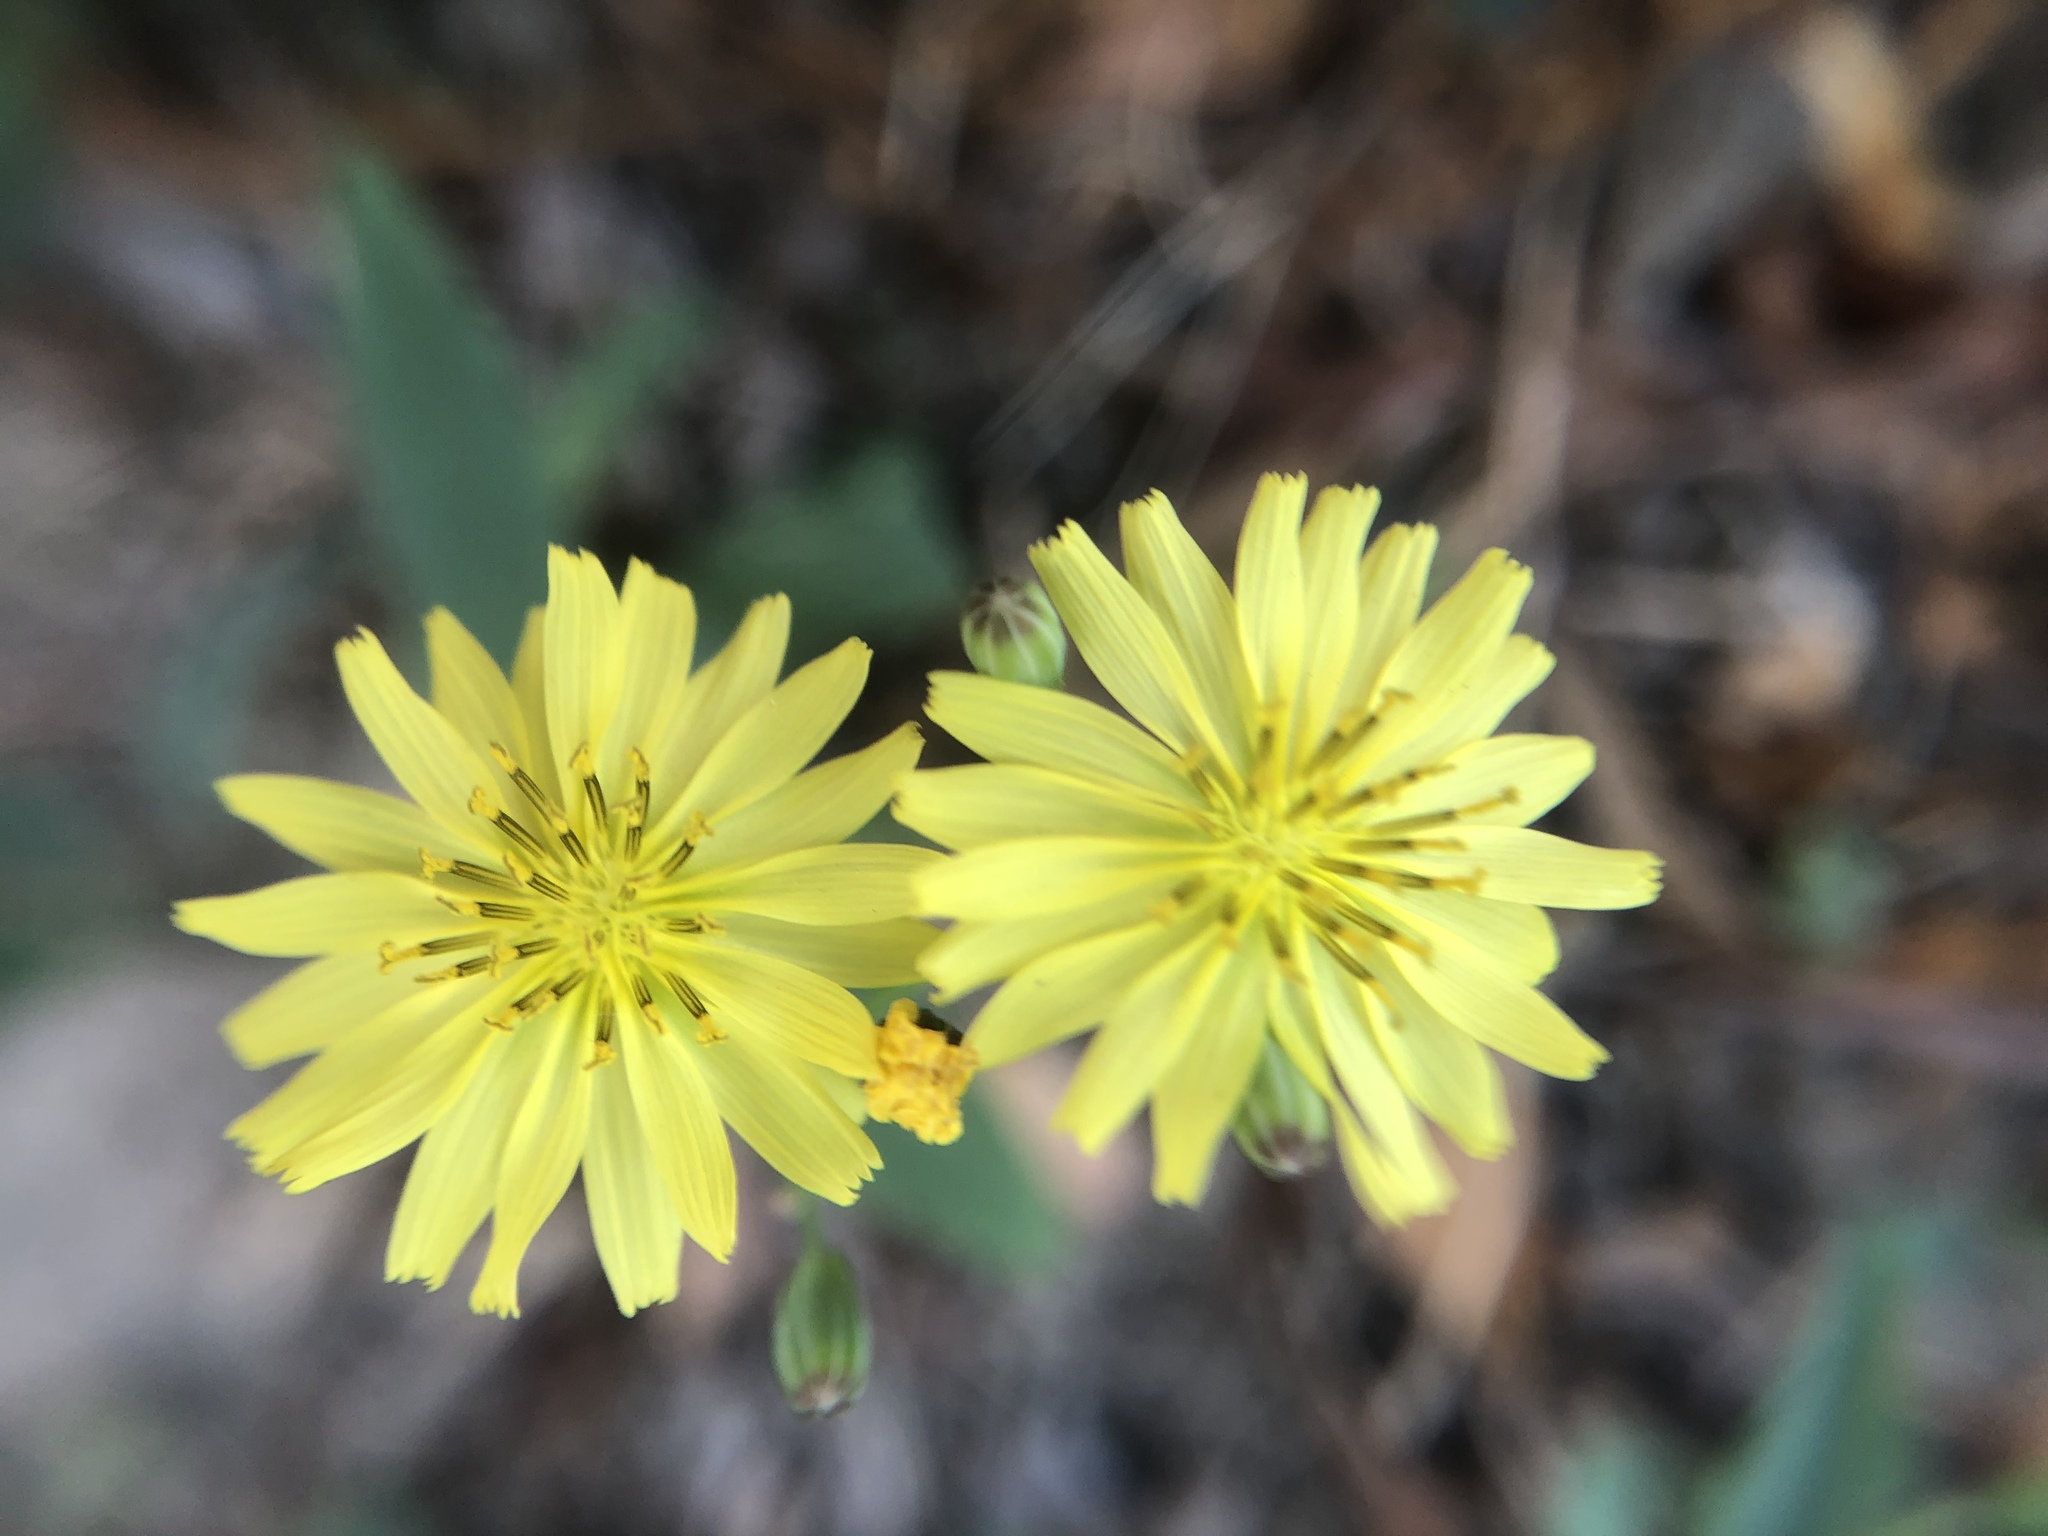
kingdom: Plantae
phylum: Tracheophyta
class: Magnoliopsida
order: Asterales
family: Asteraceae
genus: Ixeris
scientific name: Ixeris chinensis
